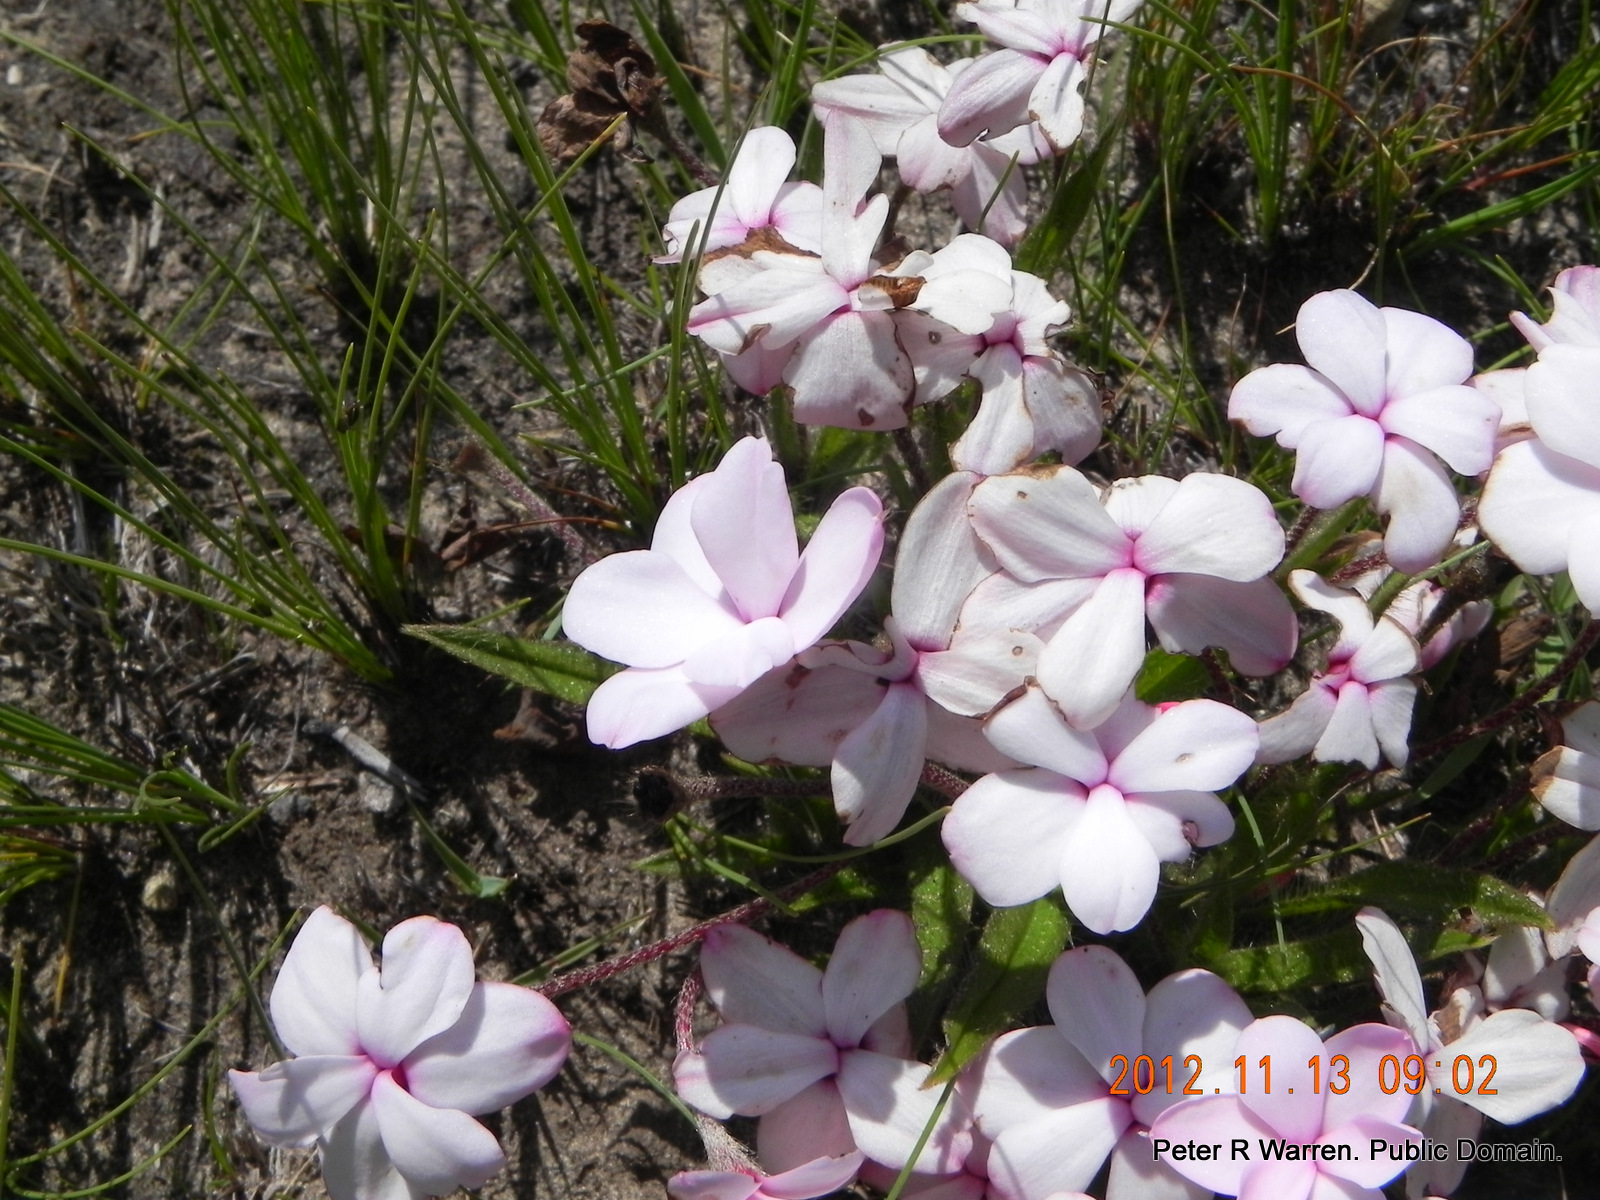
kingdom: Plantae
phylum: Tracheophyta
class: Liliopsida
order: Asparagales
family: Hypoxidaceae
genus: Hypoxis
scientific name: Hypoxis baurii
